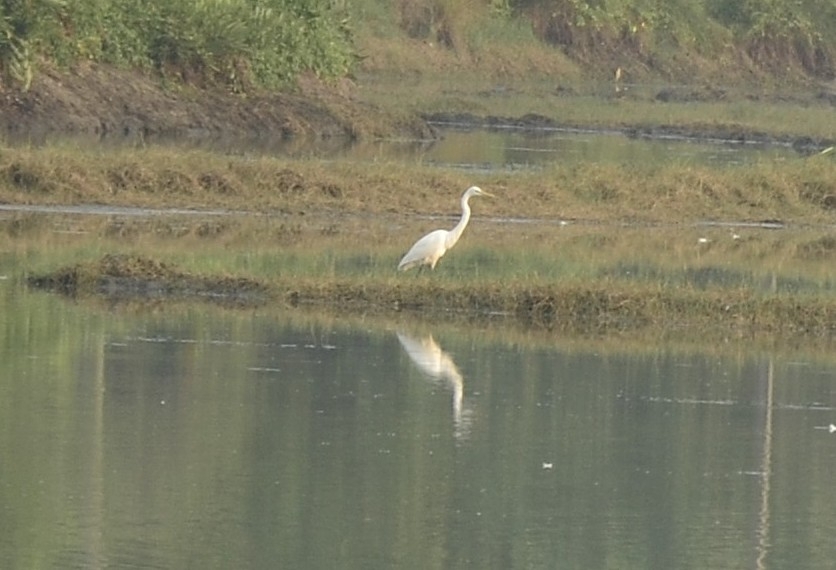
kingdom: Animalia
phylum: Chordata
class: Aves
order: Pelecaniformes
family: Ardeidae
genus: Ardea
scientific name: Ardea alba
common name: Great egret
